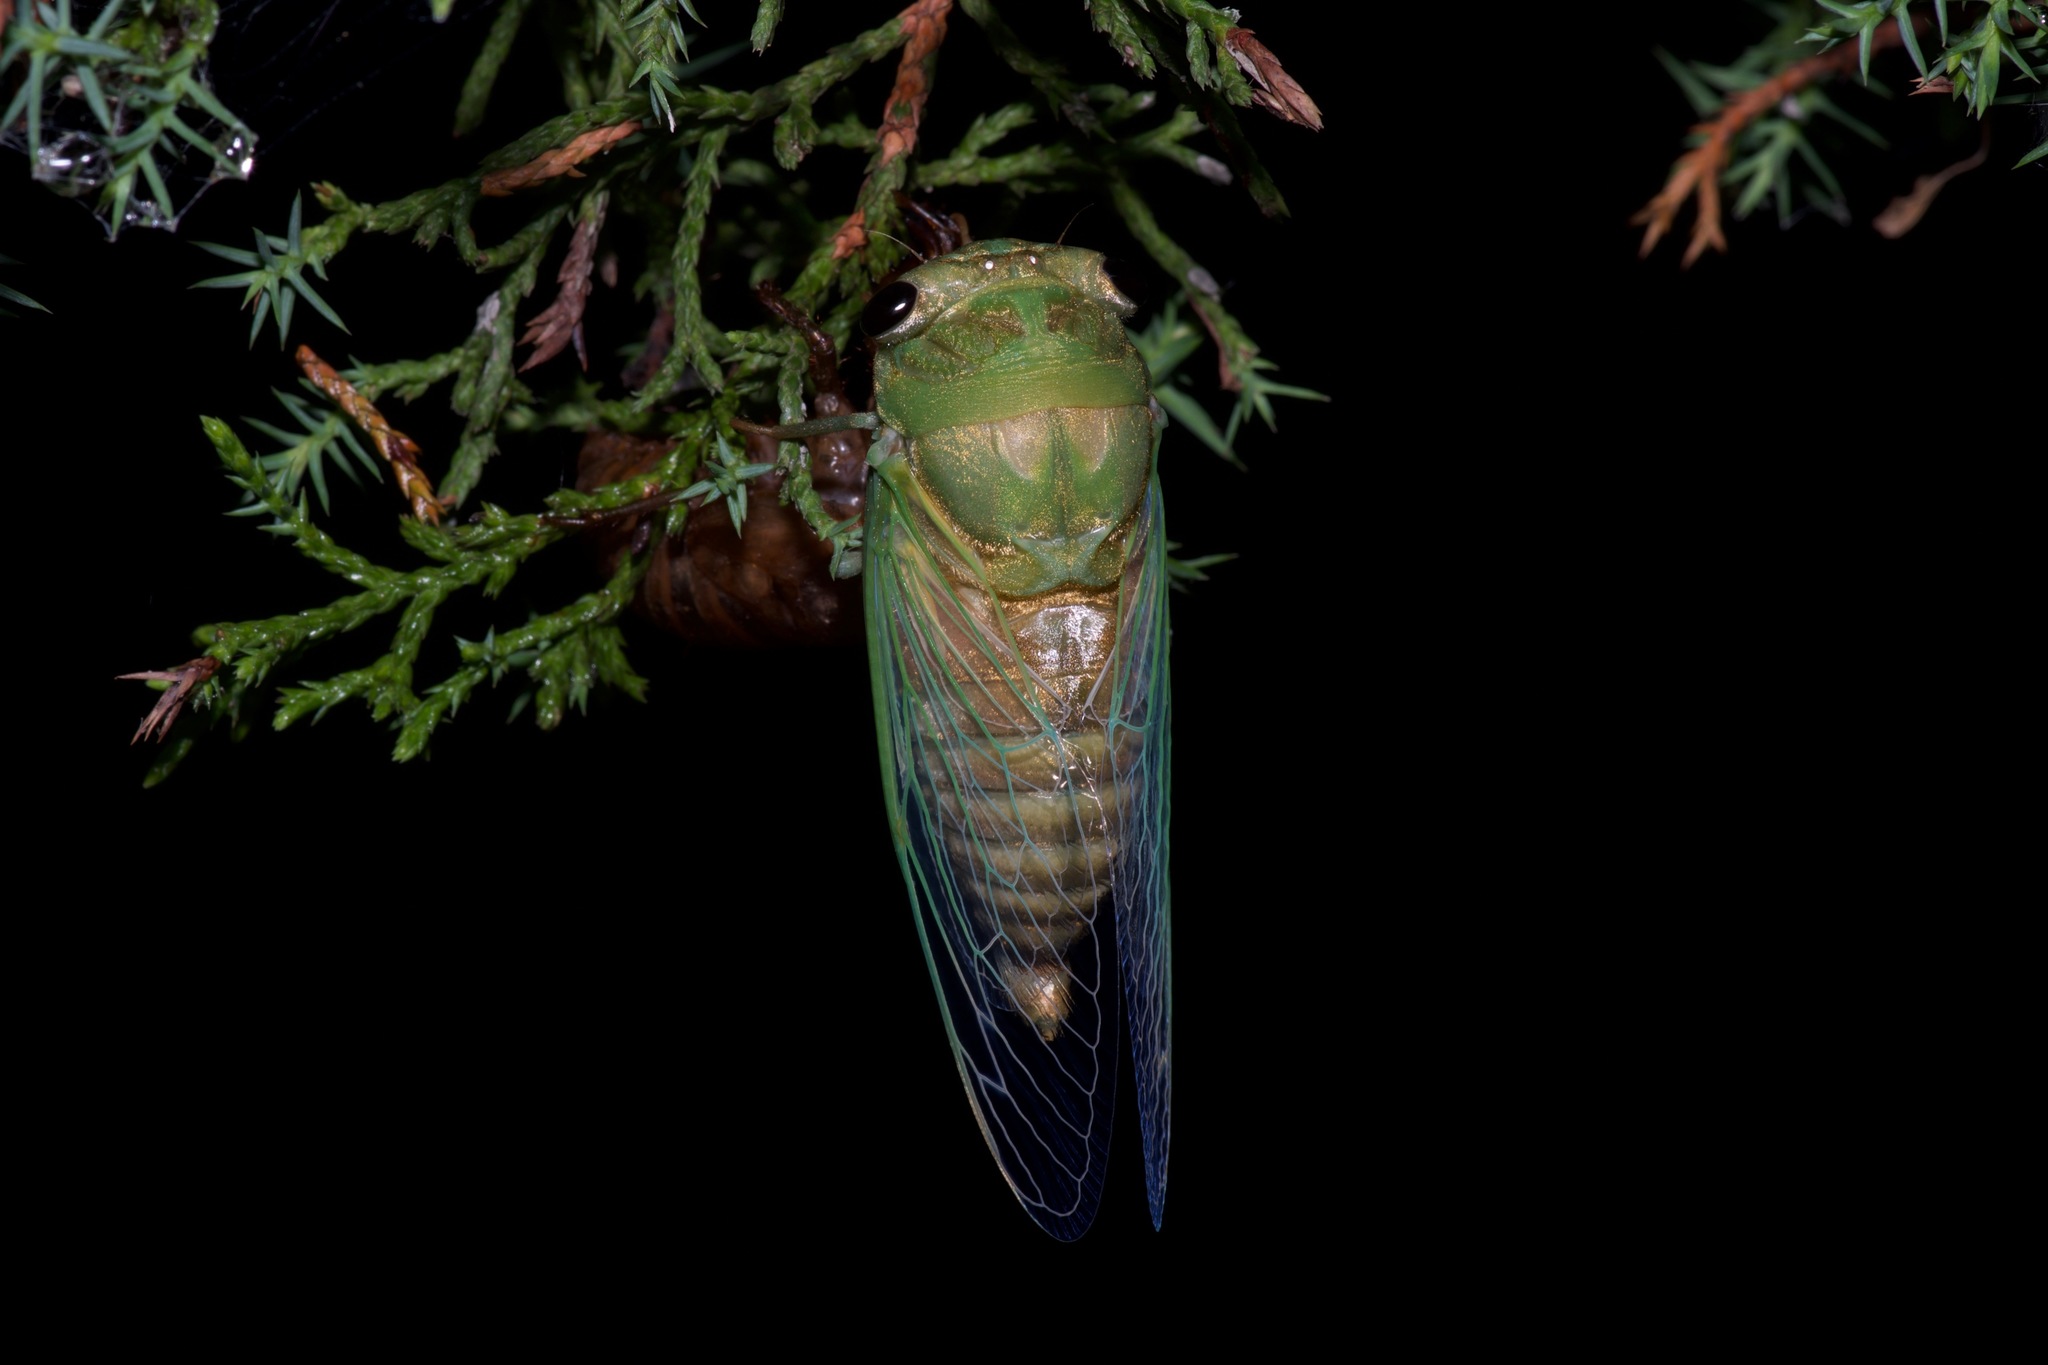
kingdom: Animalia
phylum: Arthropoda
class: Insecta
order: Hemiptera
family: Cicadidae
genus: Neotibicen
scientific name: Neotibicen superbus
